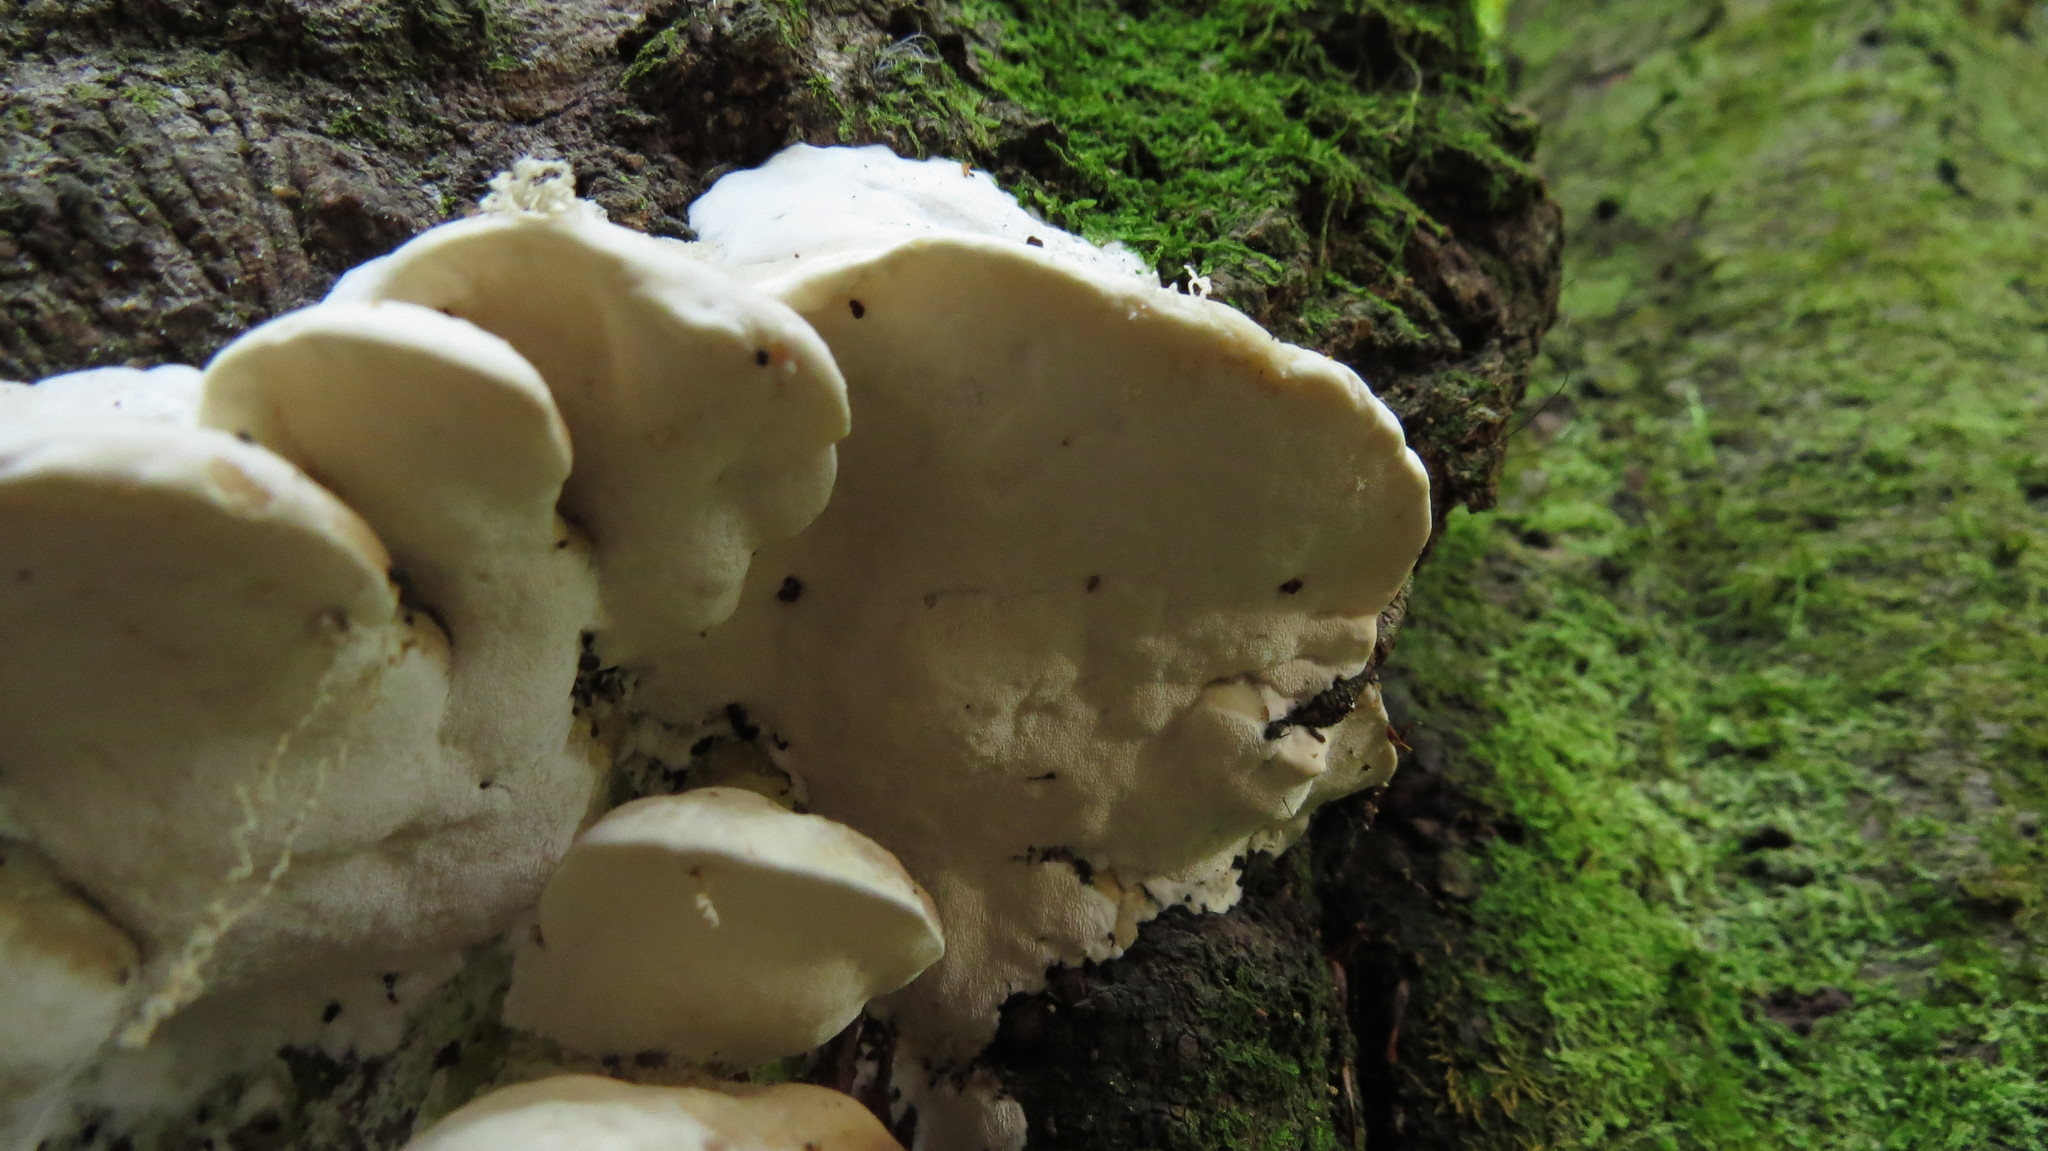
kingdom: Fungi
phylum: Basidiomycota
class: Agaricomycetes
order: Polyporales
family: Incrustoporiaceae
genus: Tyromyces
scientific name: Tyromyces chioneus
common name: White cheese polypore
